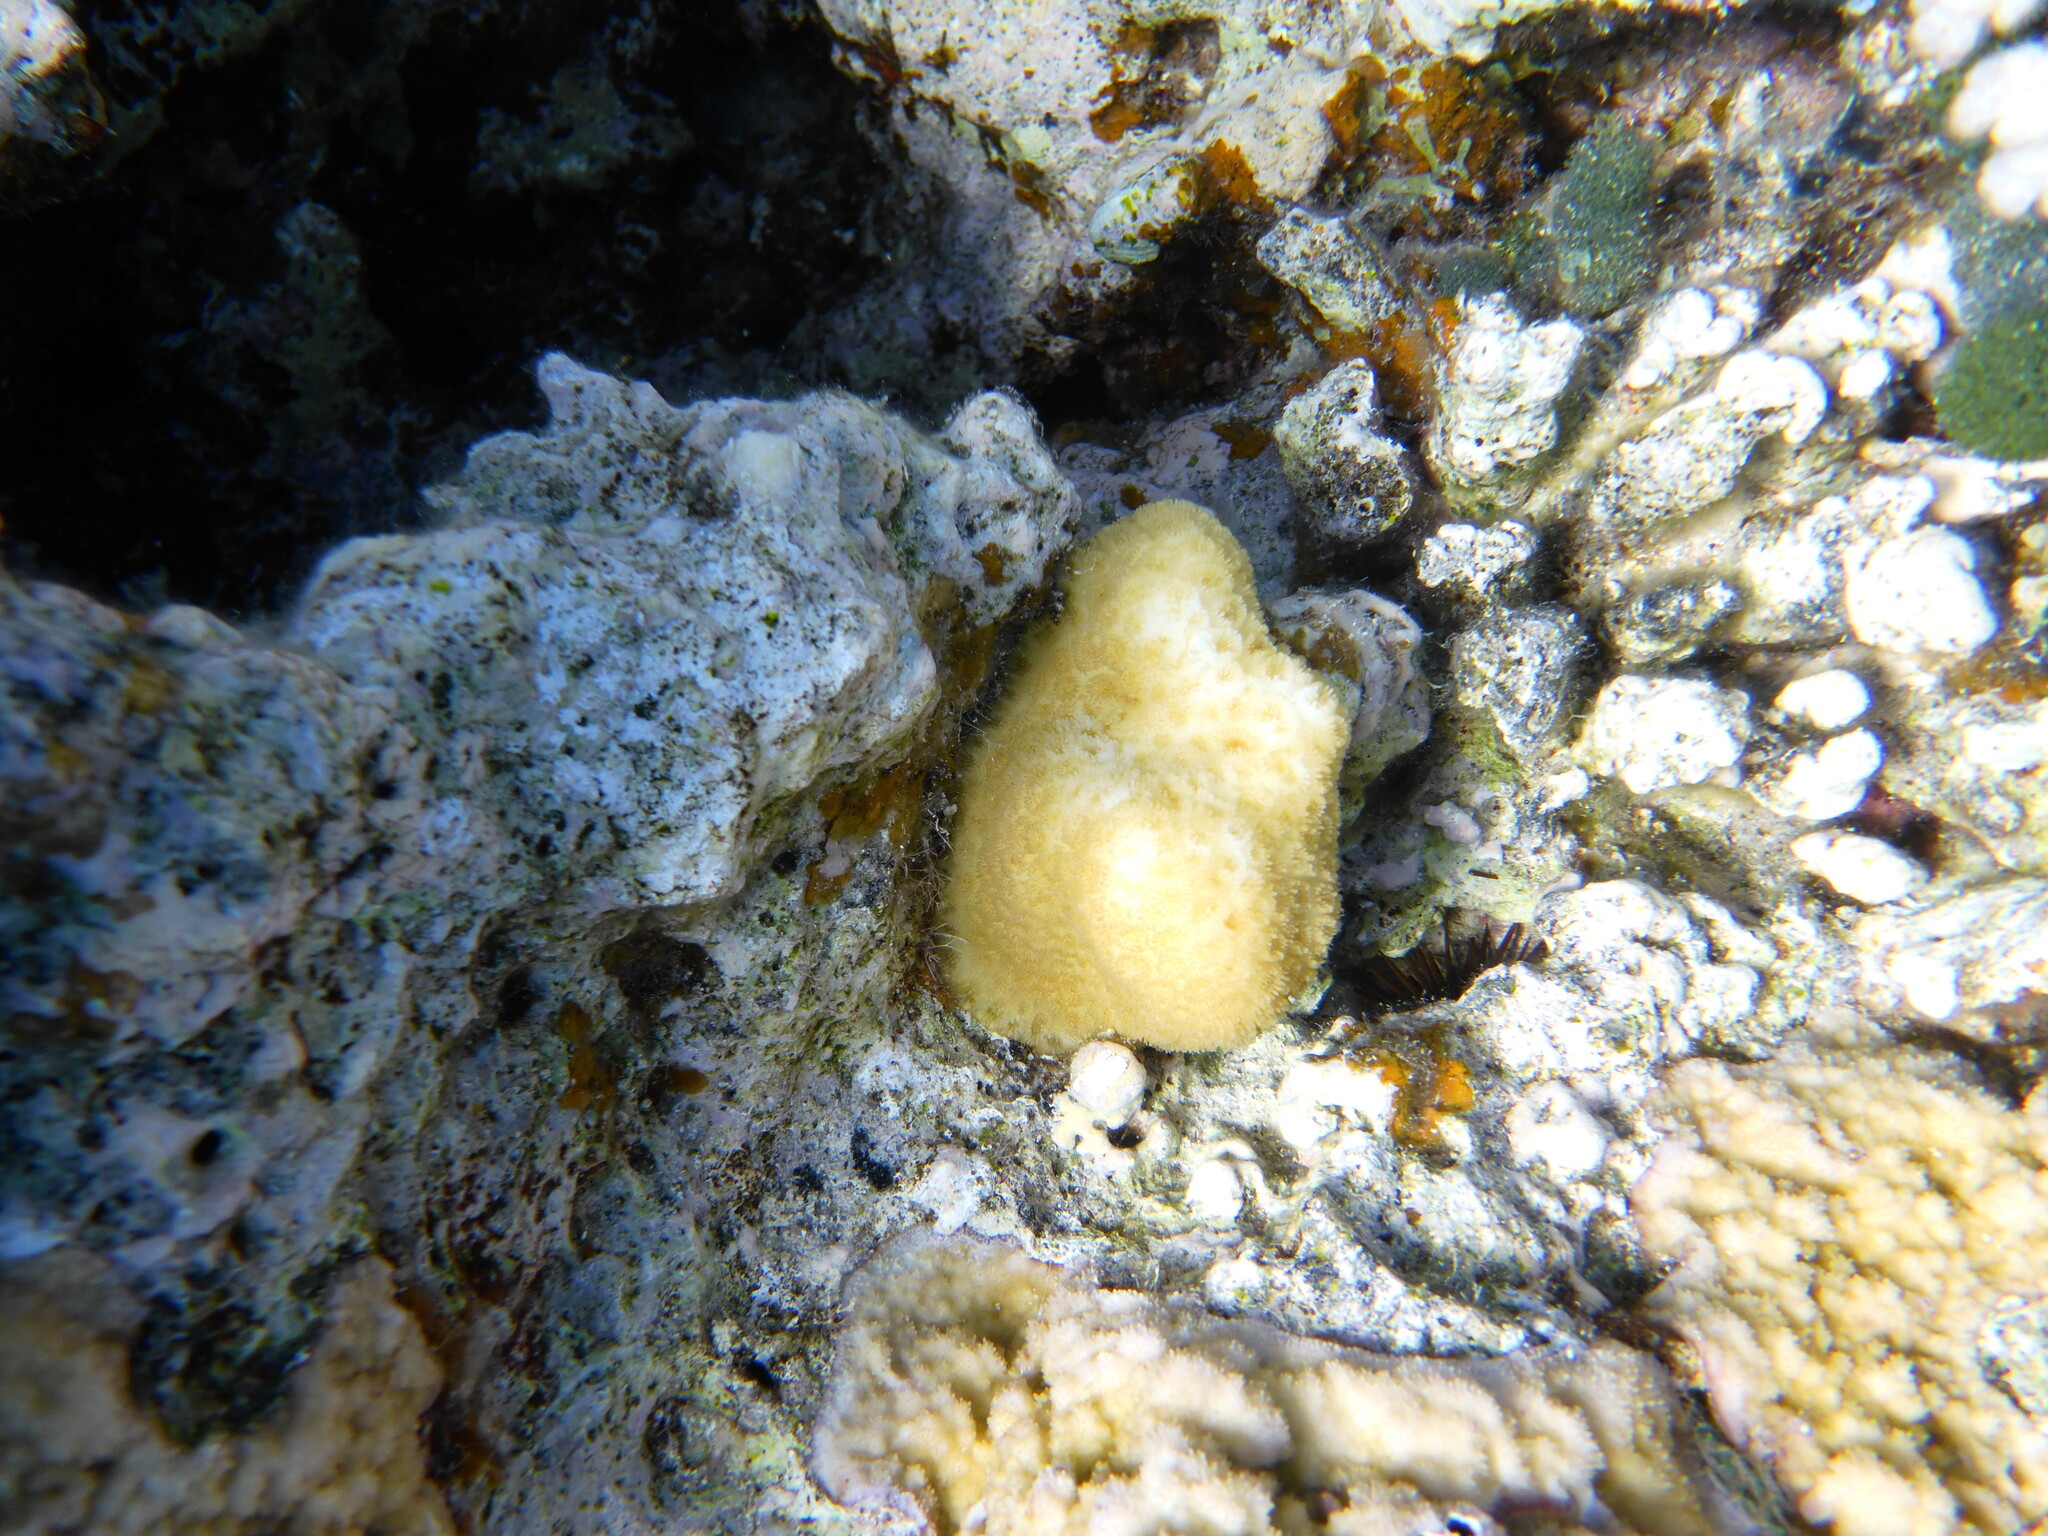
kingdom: Animalia
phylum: Cnidaria
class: Anthozoa
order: Scleractinia
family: Merulinidae
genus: Goniastrea
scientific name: Goniastrea stelligera
